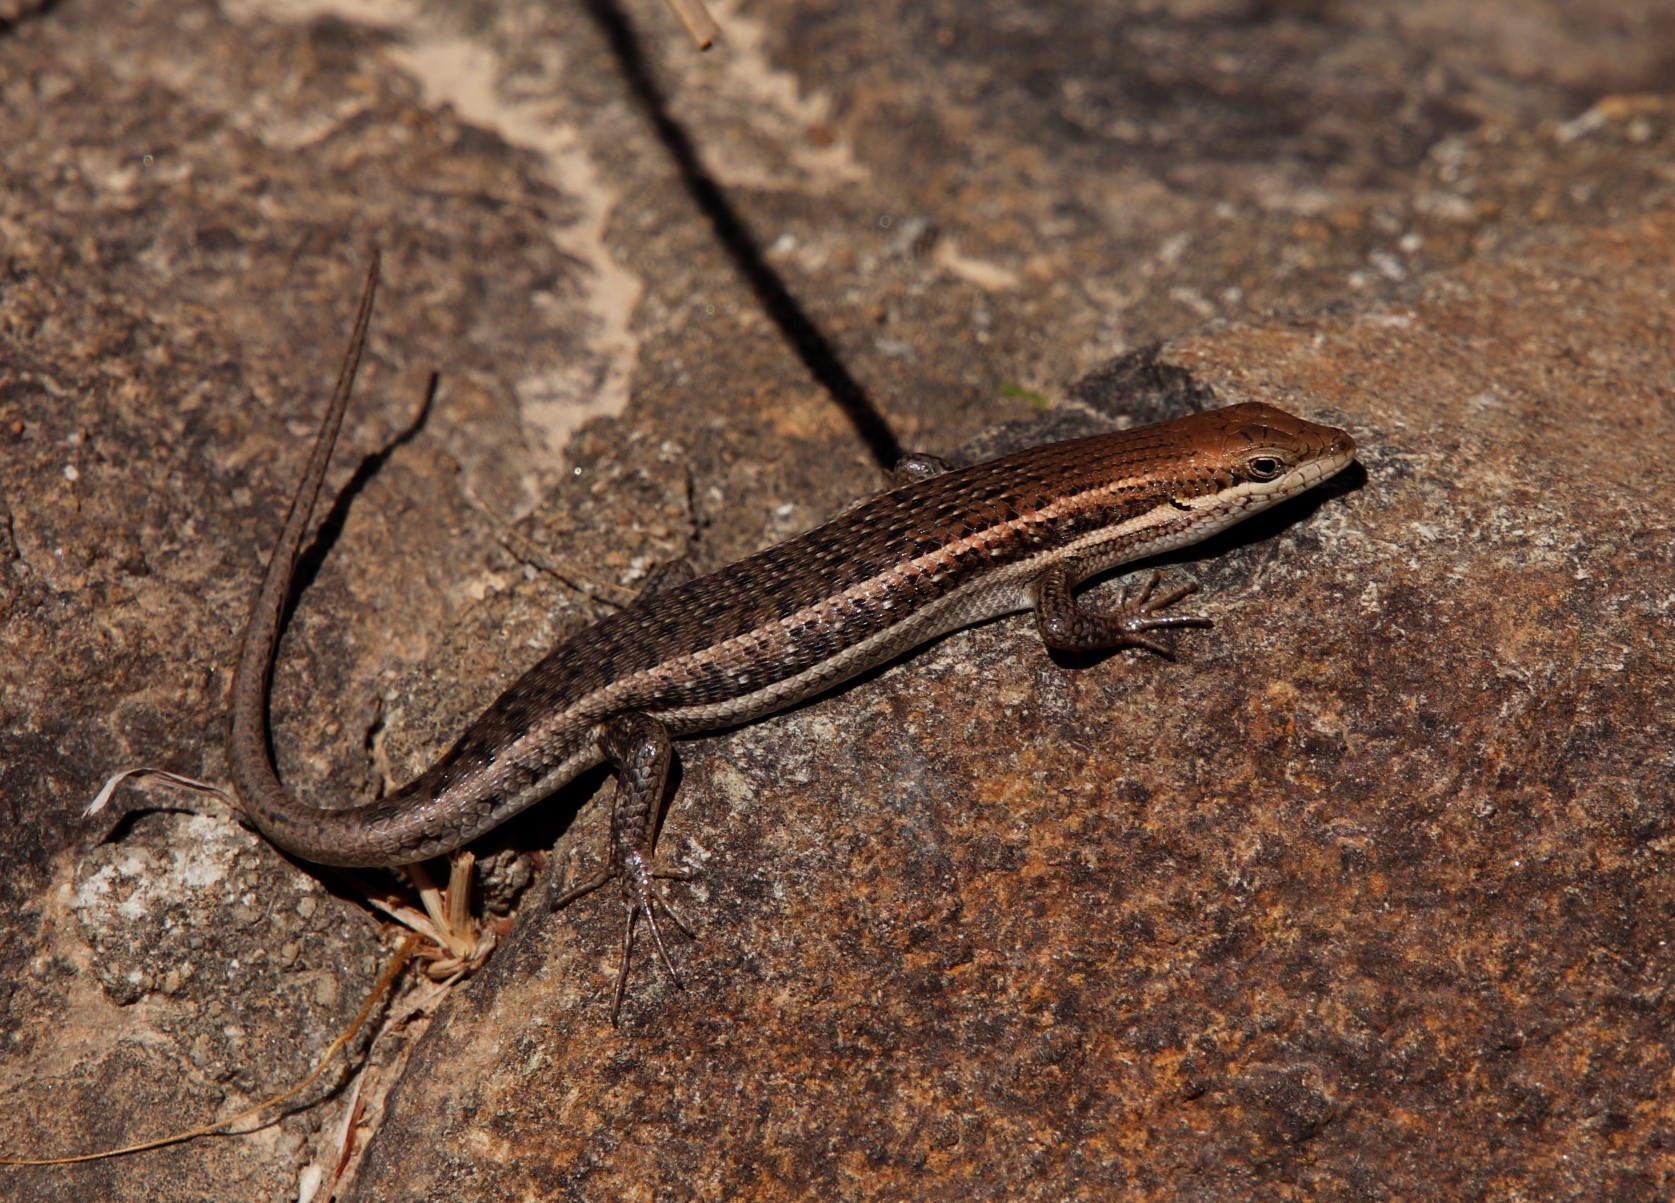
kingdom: Animalia
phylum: Chordata
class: Squamata
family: Scincidae
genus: Trachylepis
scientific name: Trachylepis damarana
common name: Damara skink
